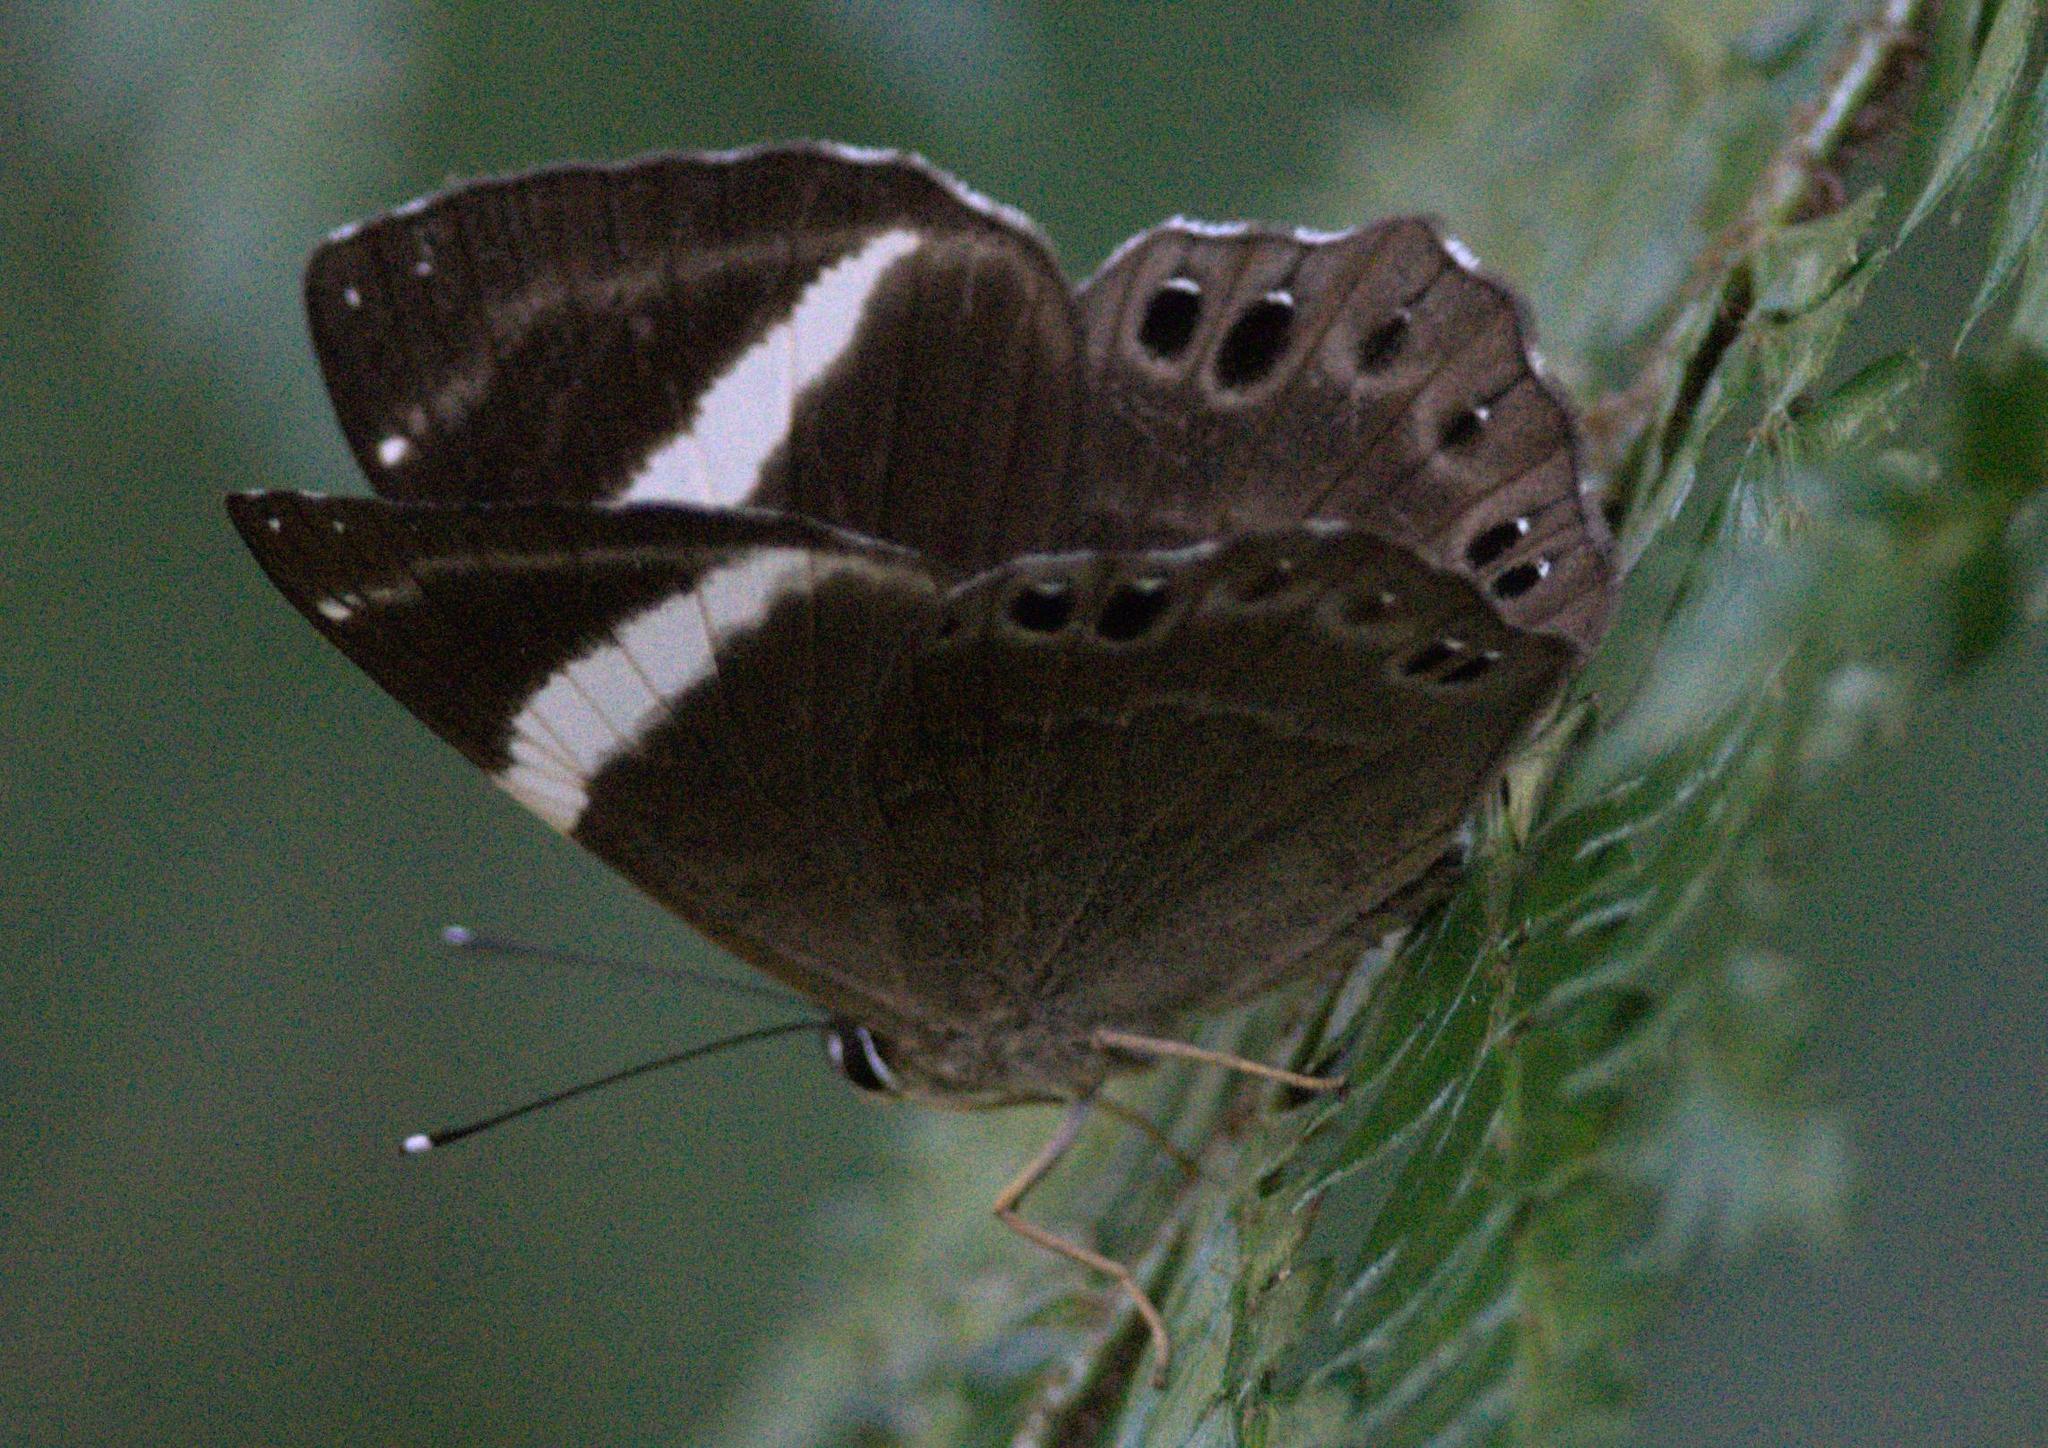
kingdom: Animalia
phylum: Arthropoda
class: Insecta
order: Lepidoptera
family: Lycaenidae
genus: Abisara
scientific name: Abisara fylla
